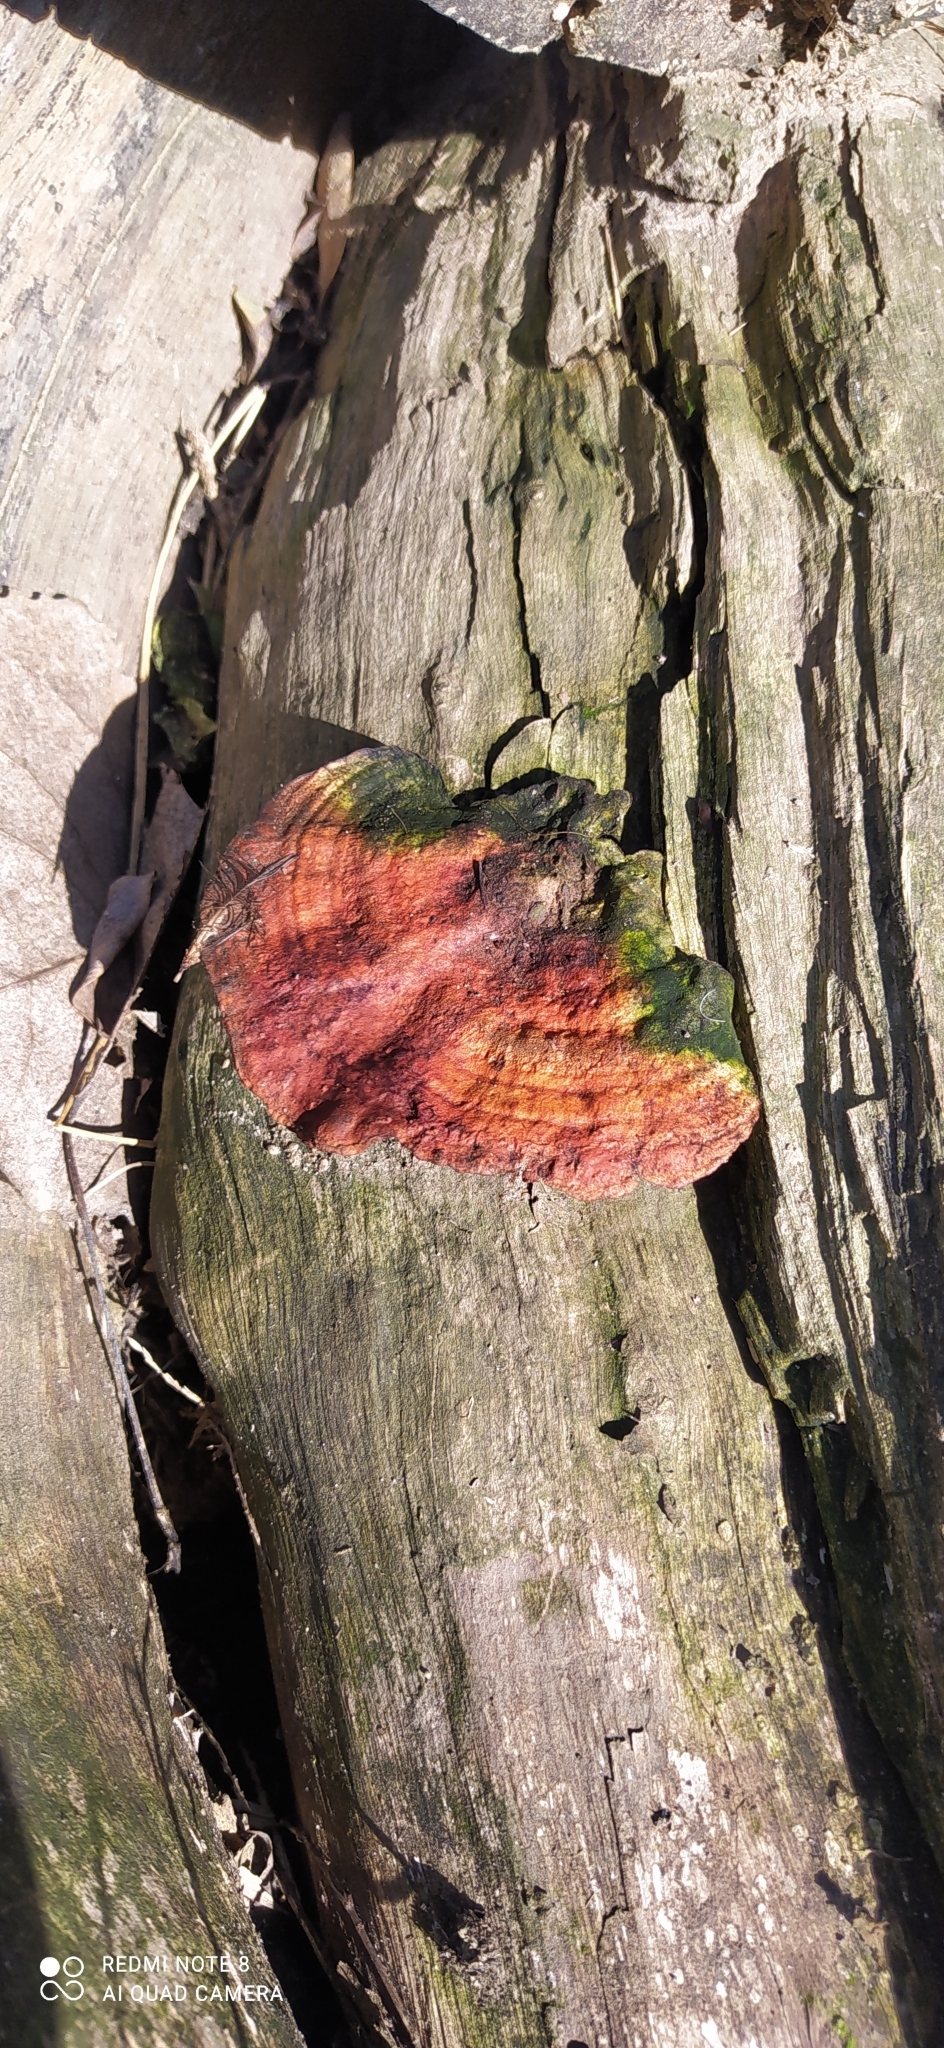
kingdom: Fungi
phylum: Basidiomycota
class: Agaricomycetes
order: Polyporales
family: Polyporaceae
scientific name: Polyporaceae
